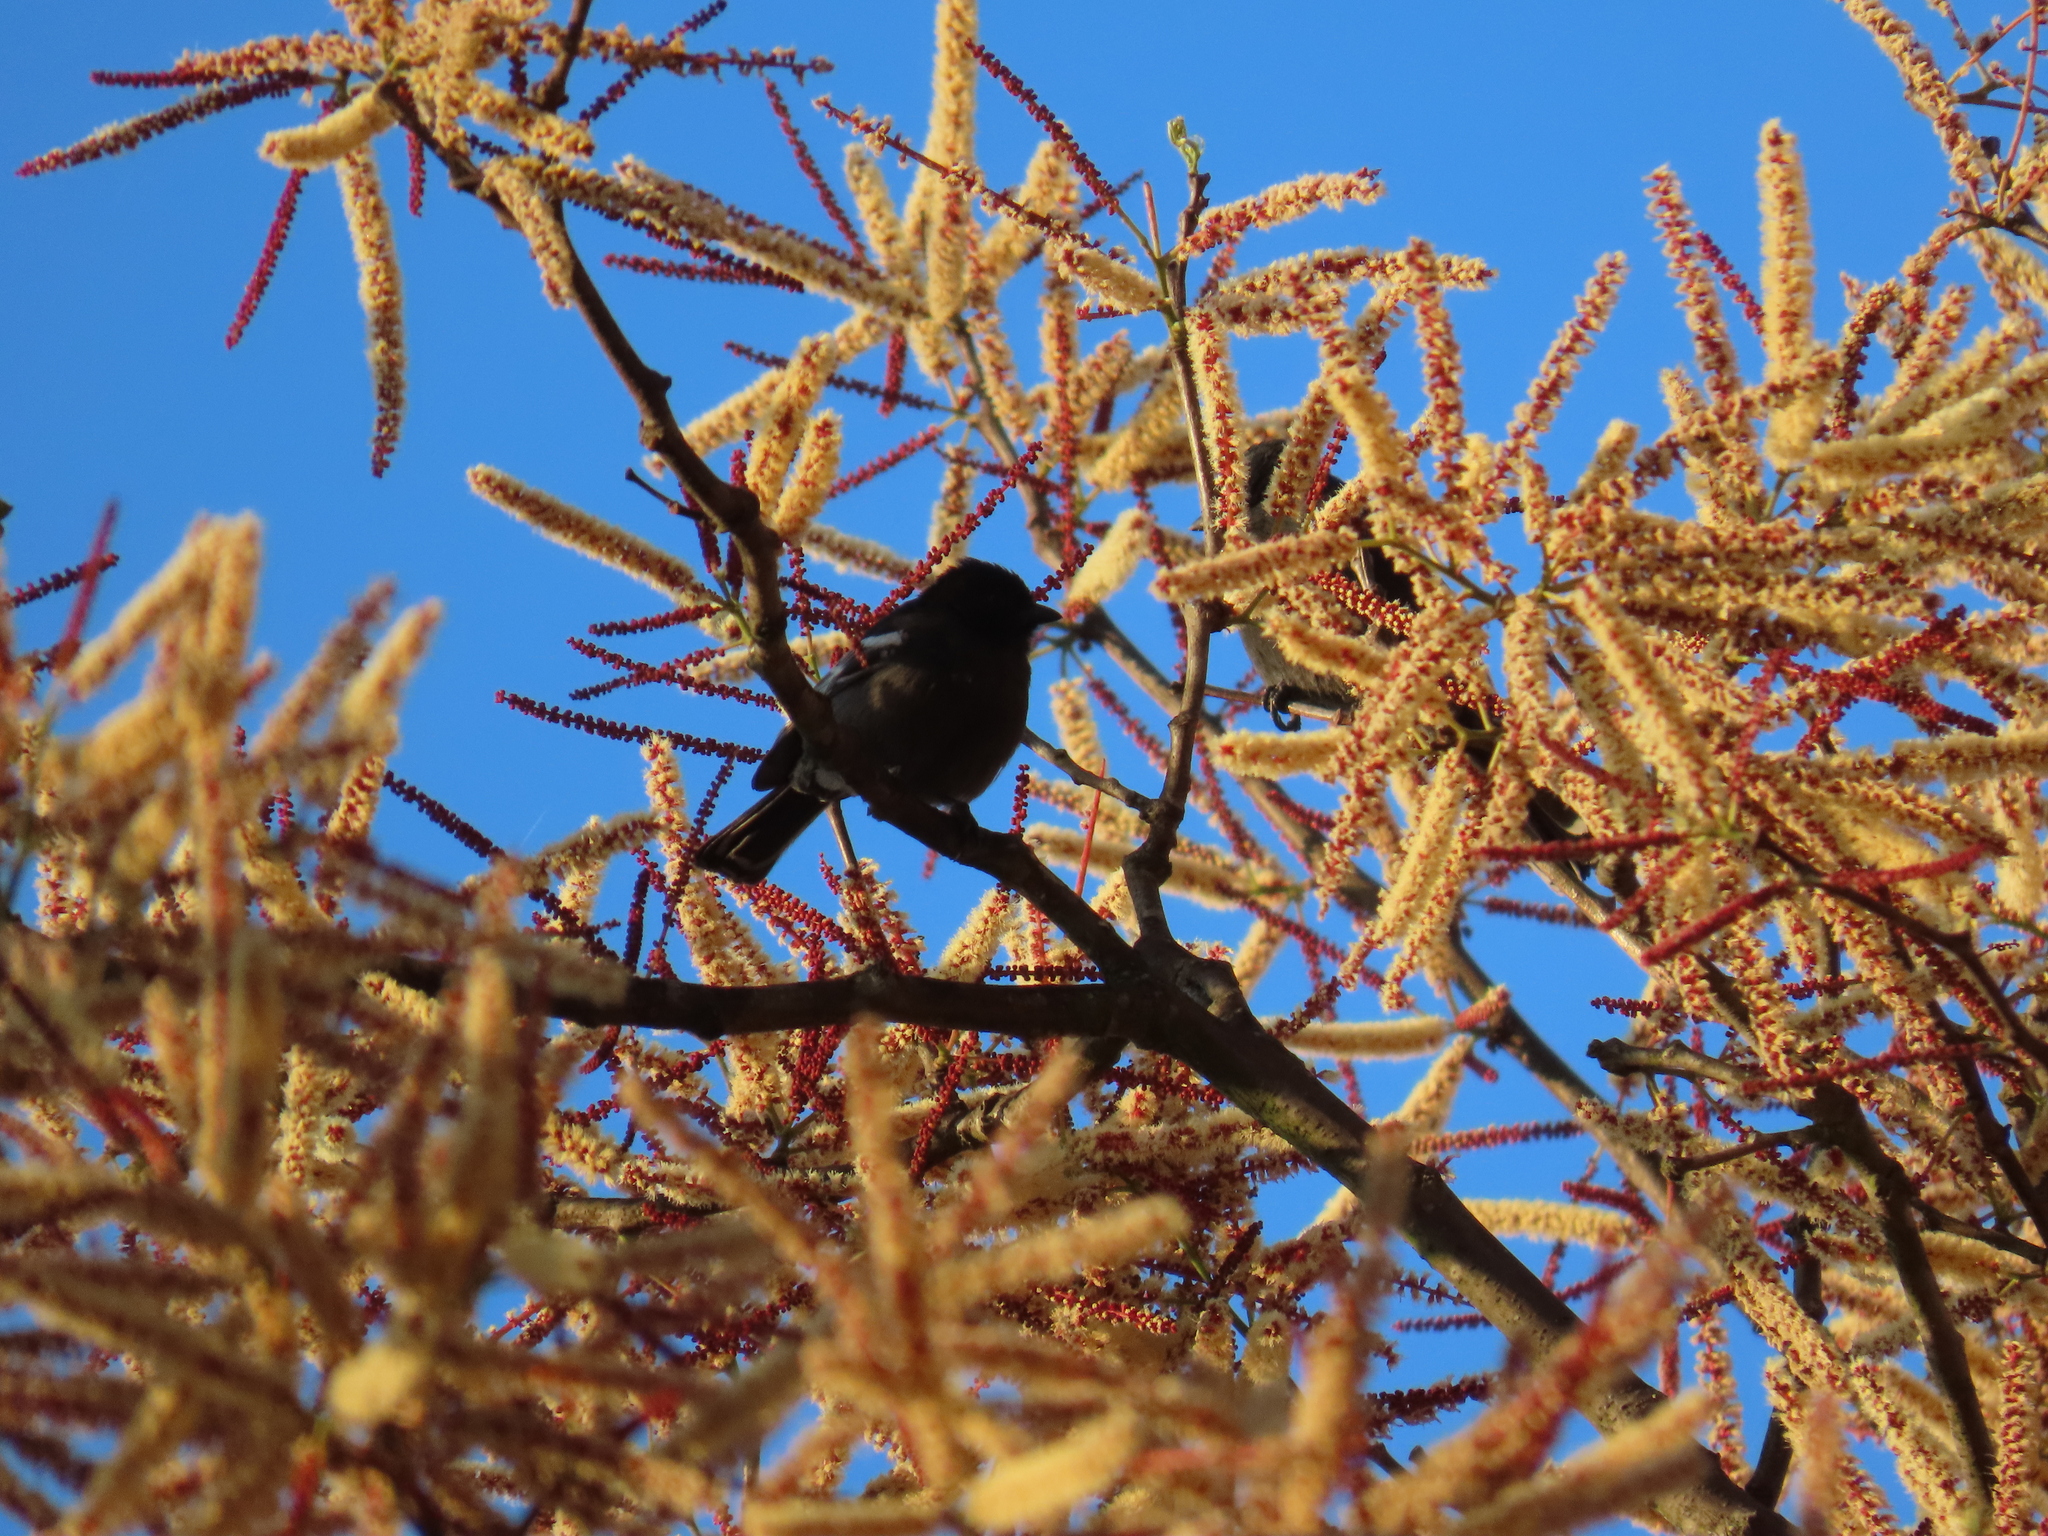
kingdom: Animalia
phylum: Chordata
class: Aves
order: Passeriformes
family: Paridae
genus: Parus
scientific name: Parus niger
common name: Southern black tit
